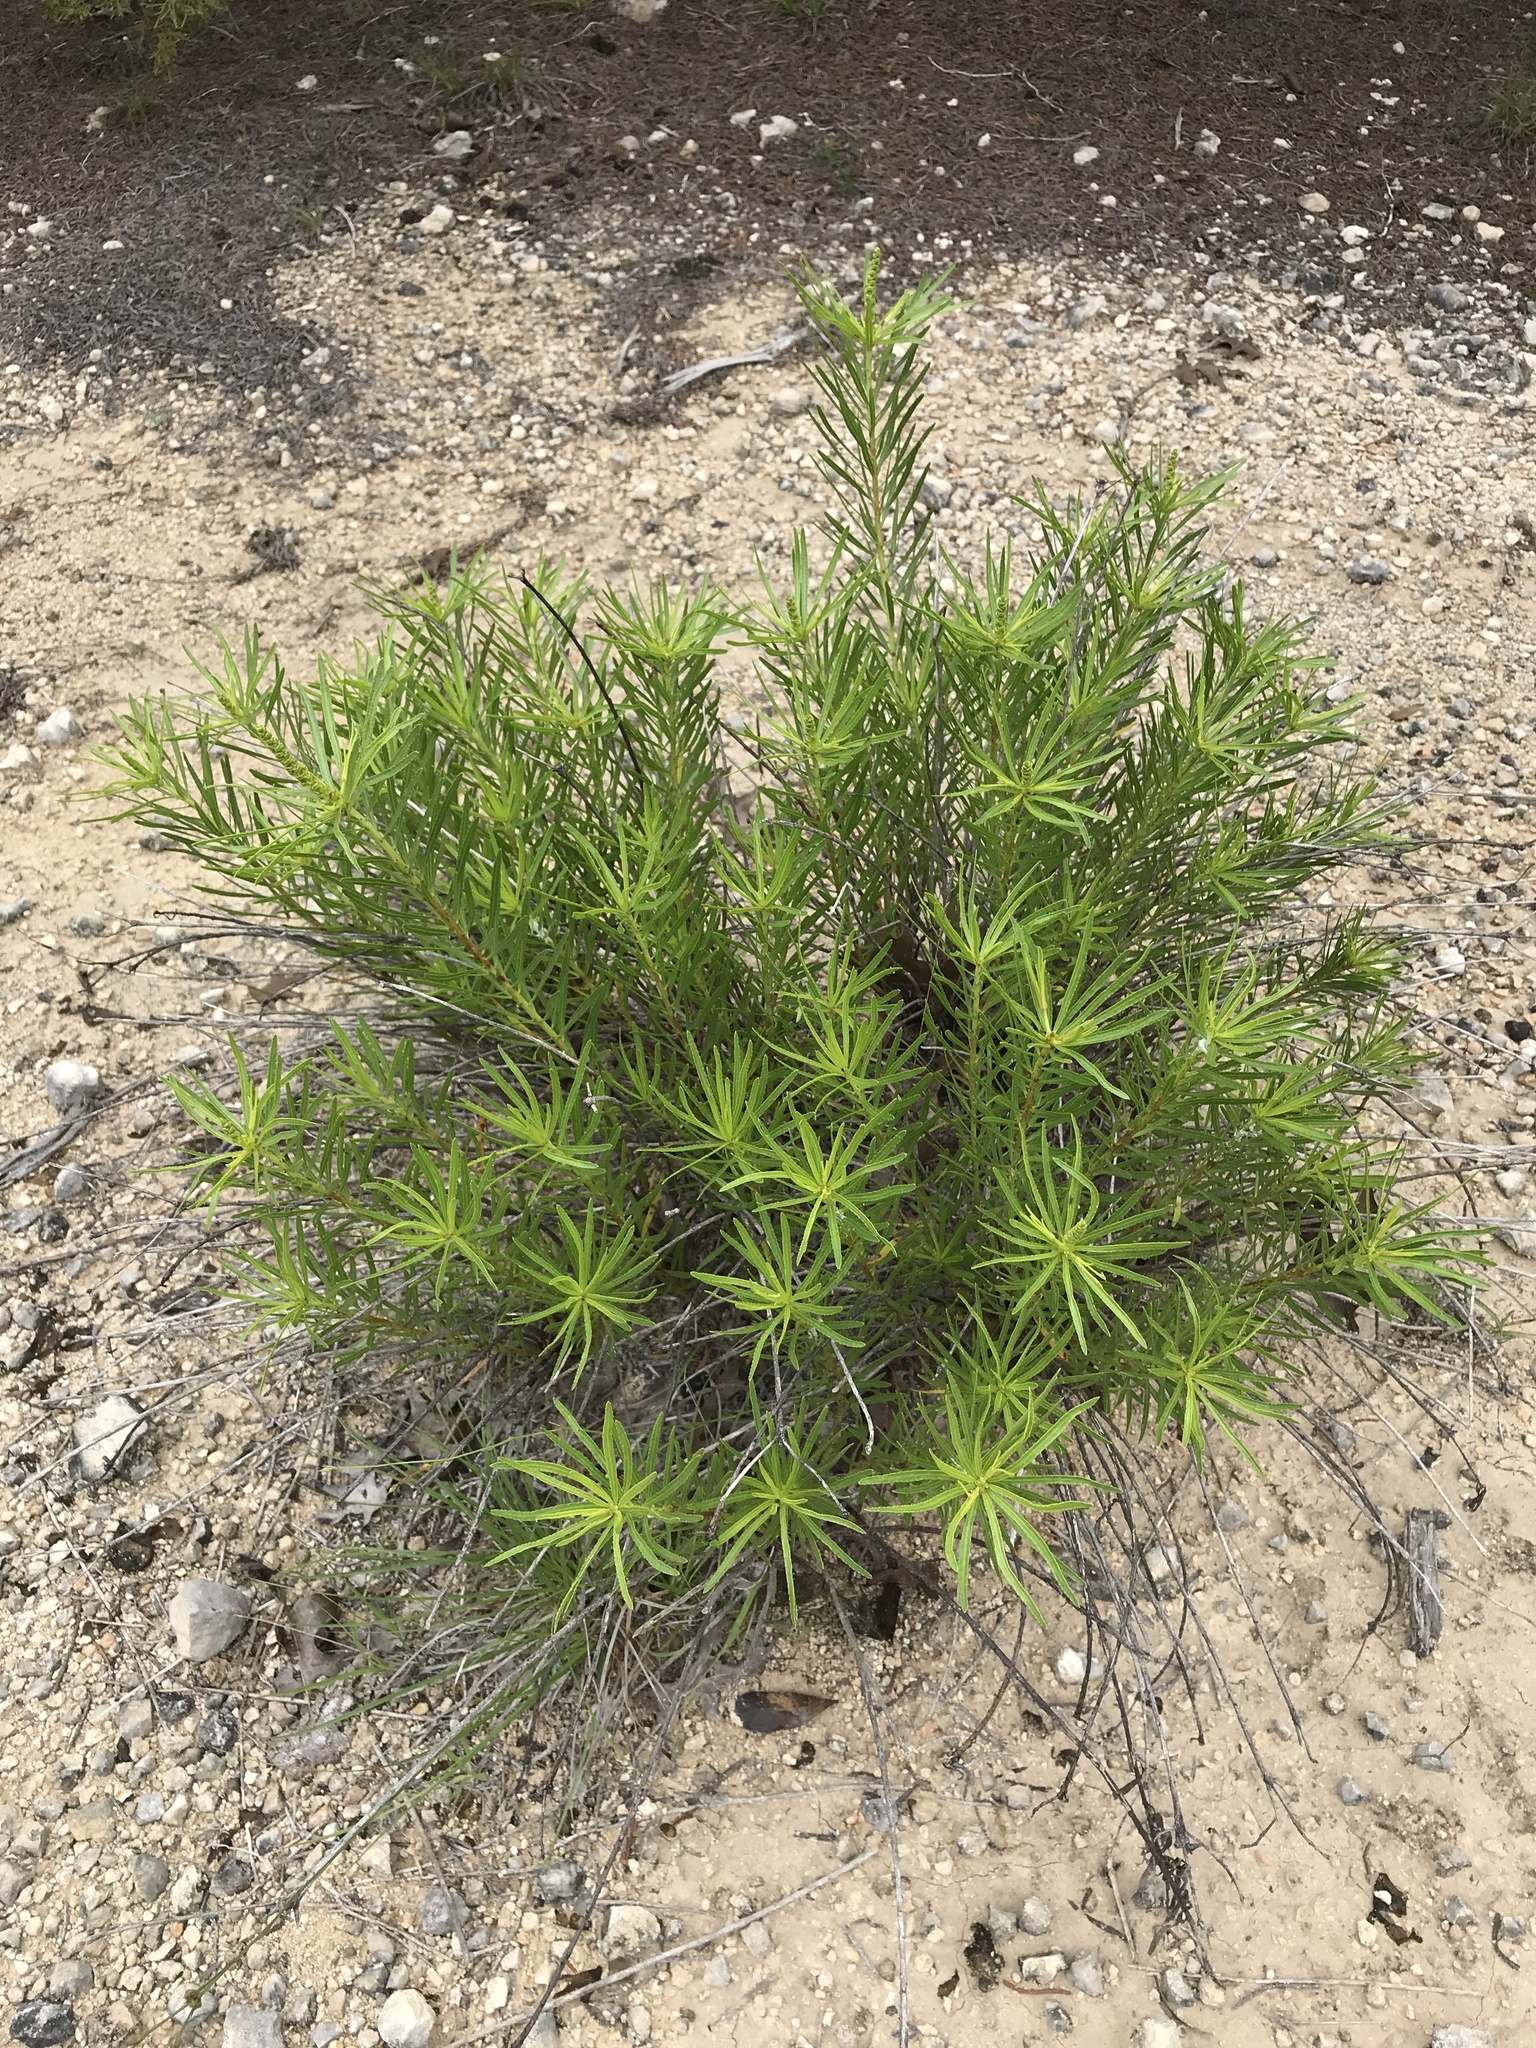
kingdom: Plantae
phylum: Tracheophyta
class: Magnoliopsida
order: Malpighiales
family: Euphorbiaceae
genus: Stillingia
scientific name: Stillingia texana
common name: Texas stillingia
